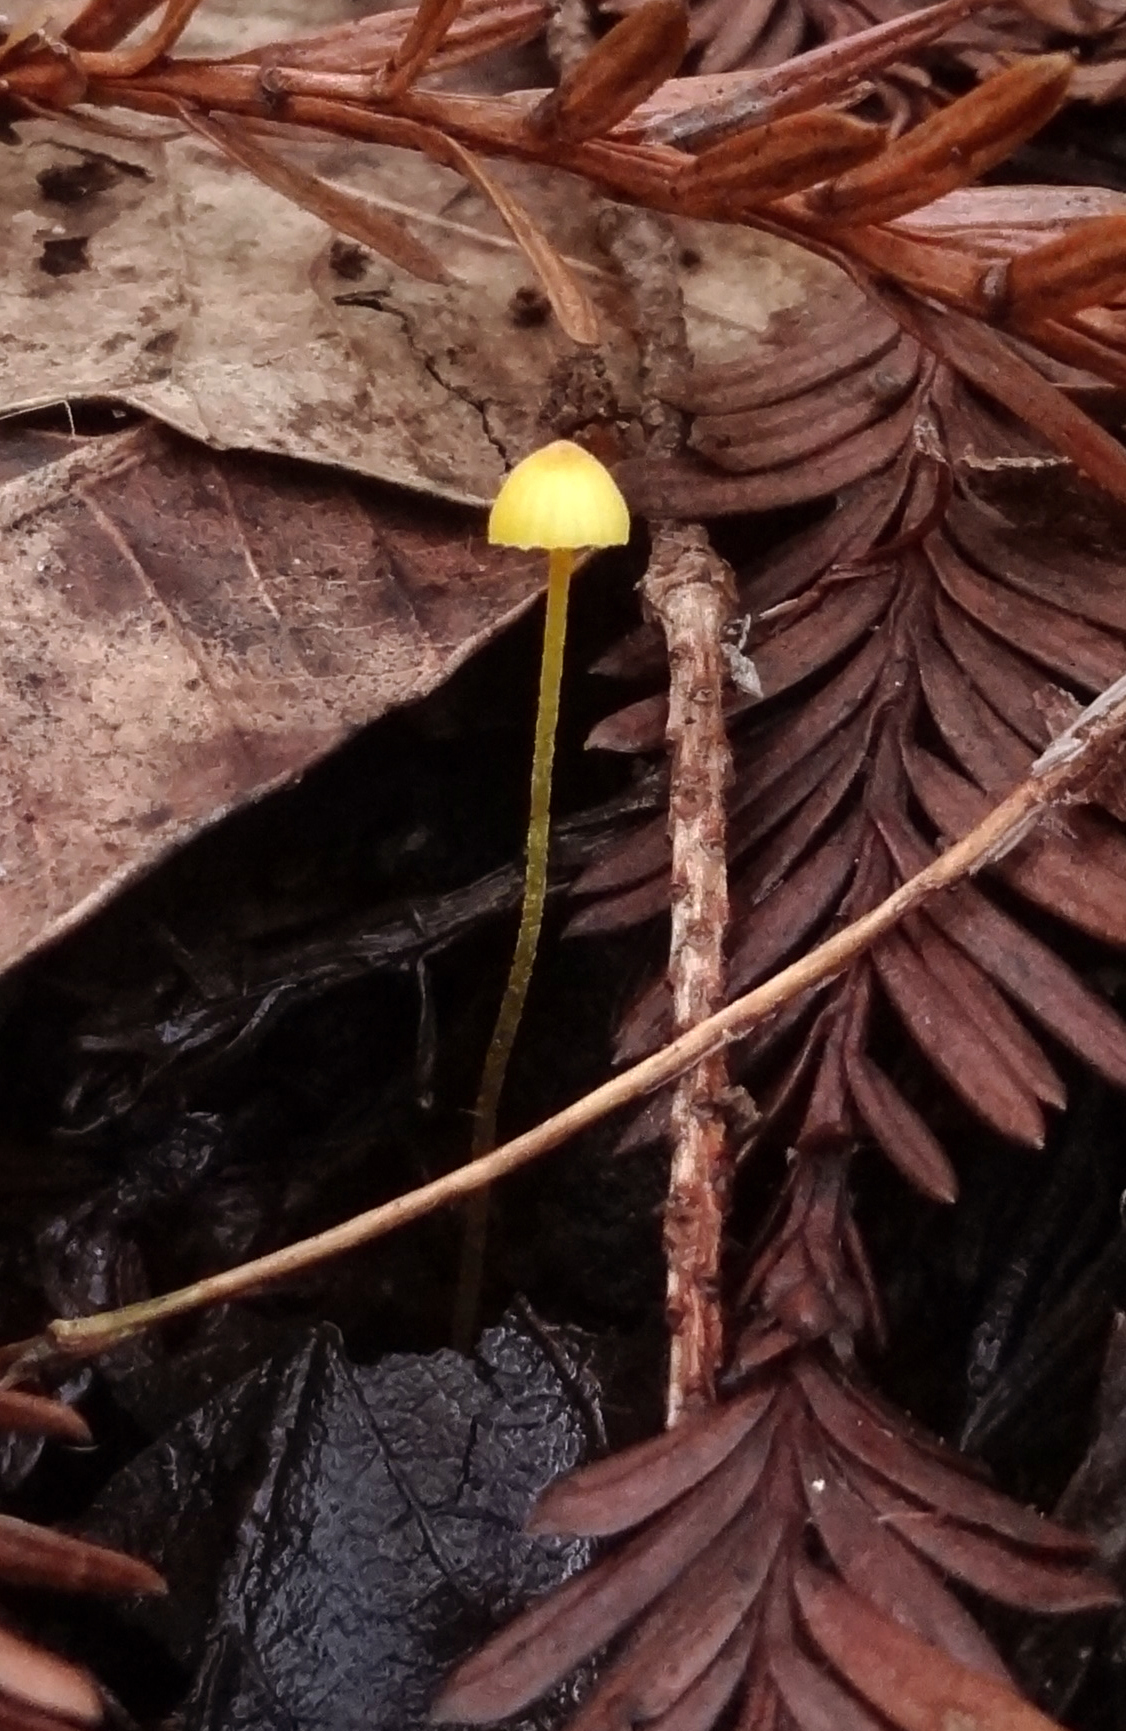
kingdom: Fungi
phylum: Basidiomycota
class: Agaricomycetes
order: Agaricales
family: Mycenaceae
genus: Mycena
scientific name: Mycena oregonensis
